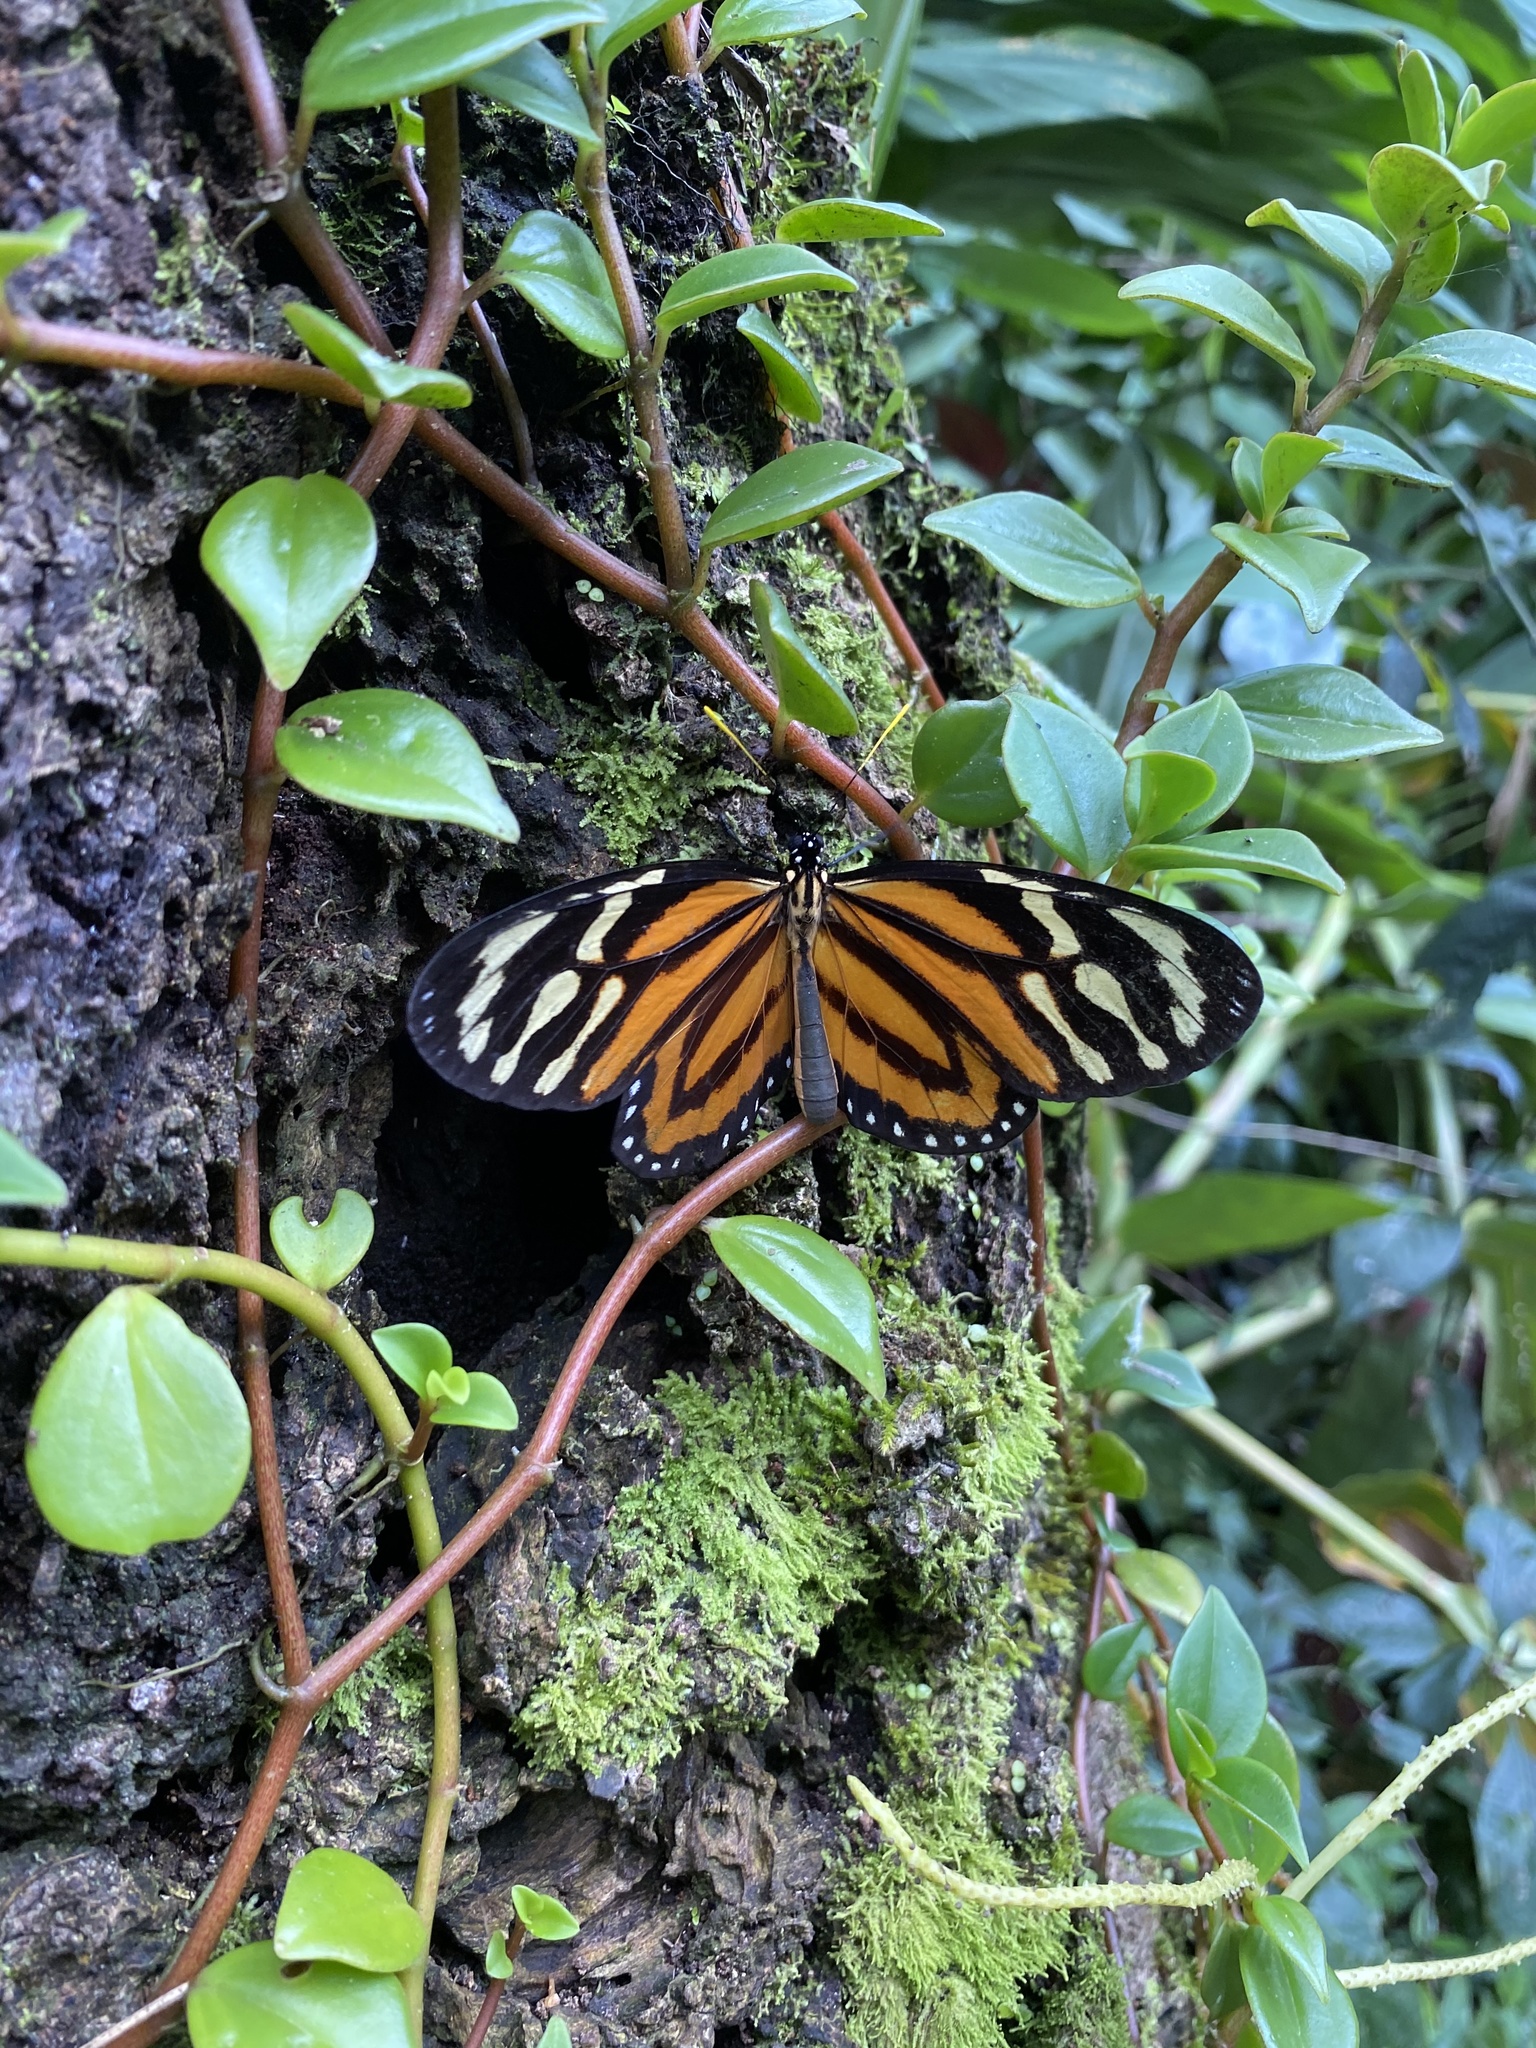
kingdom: Animalia
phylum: Arthropoda
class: Insecta
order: Lepidoptera
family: Nymphalidae
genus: Lycorea
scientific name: Lycorea cleobaea
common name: Tiger mimic-queen
